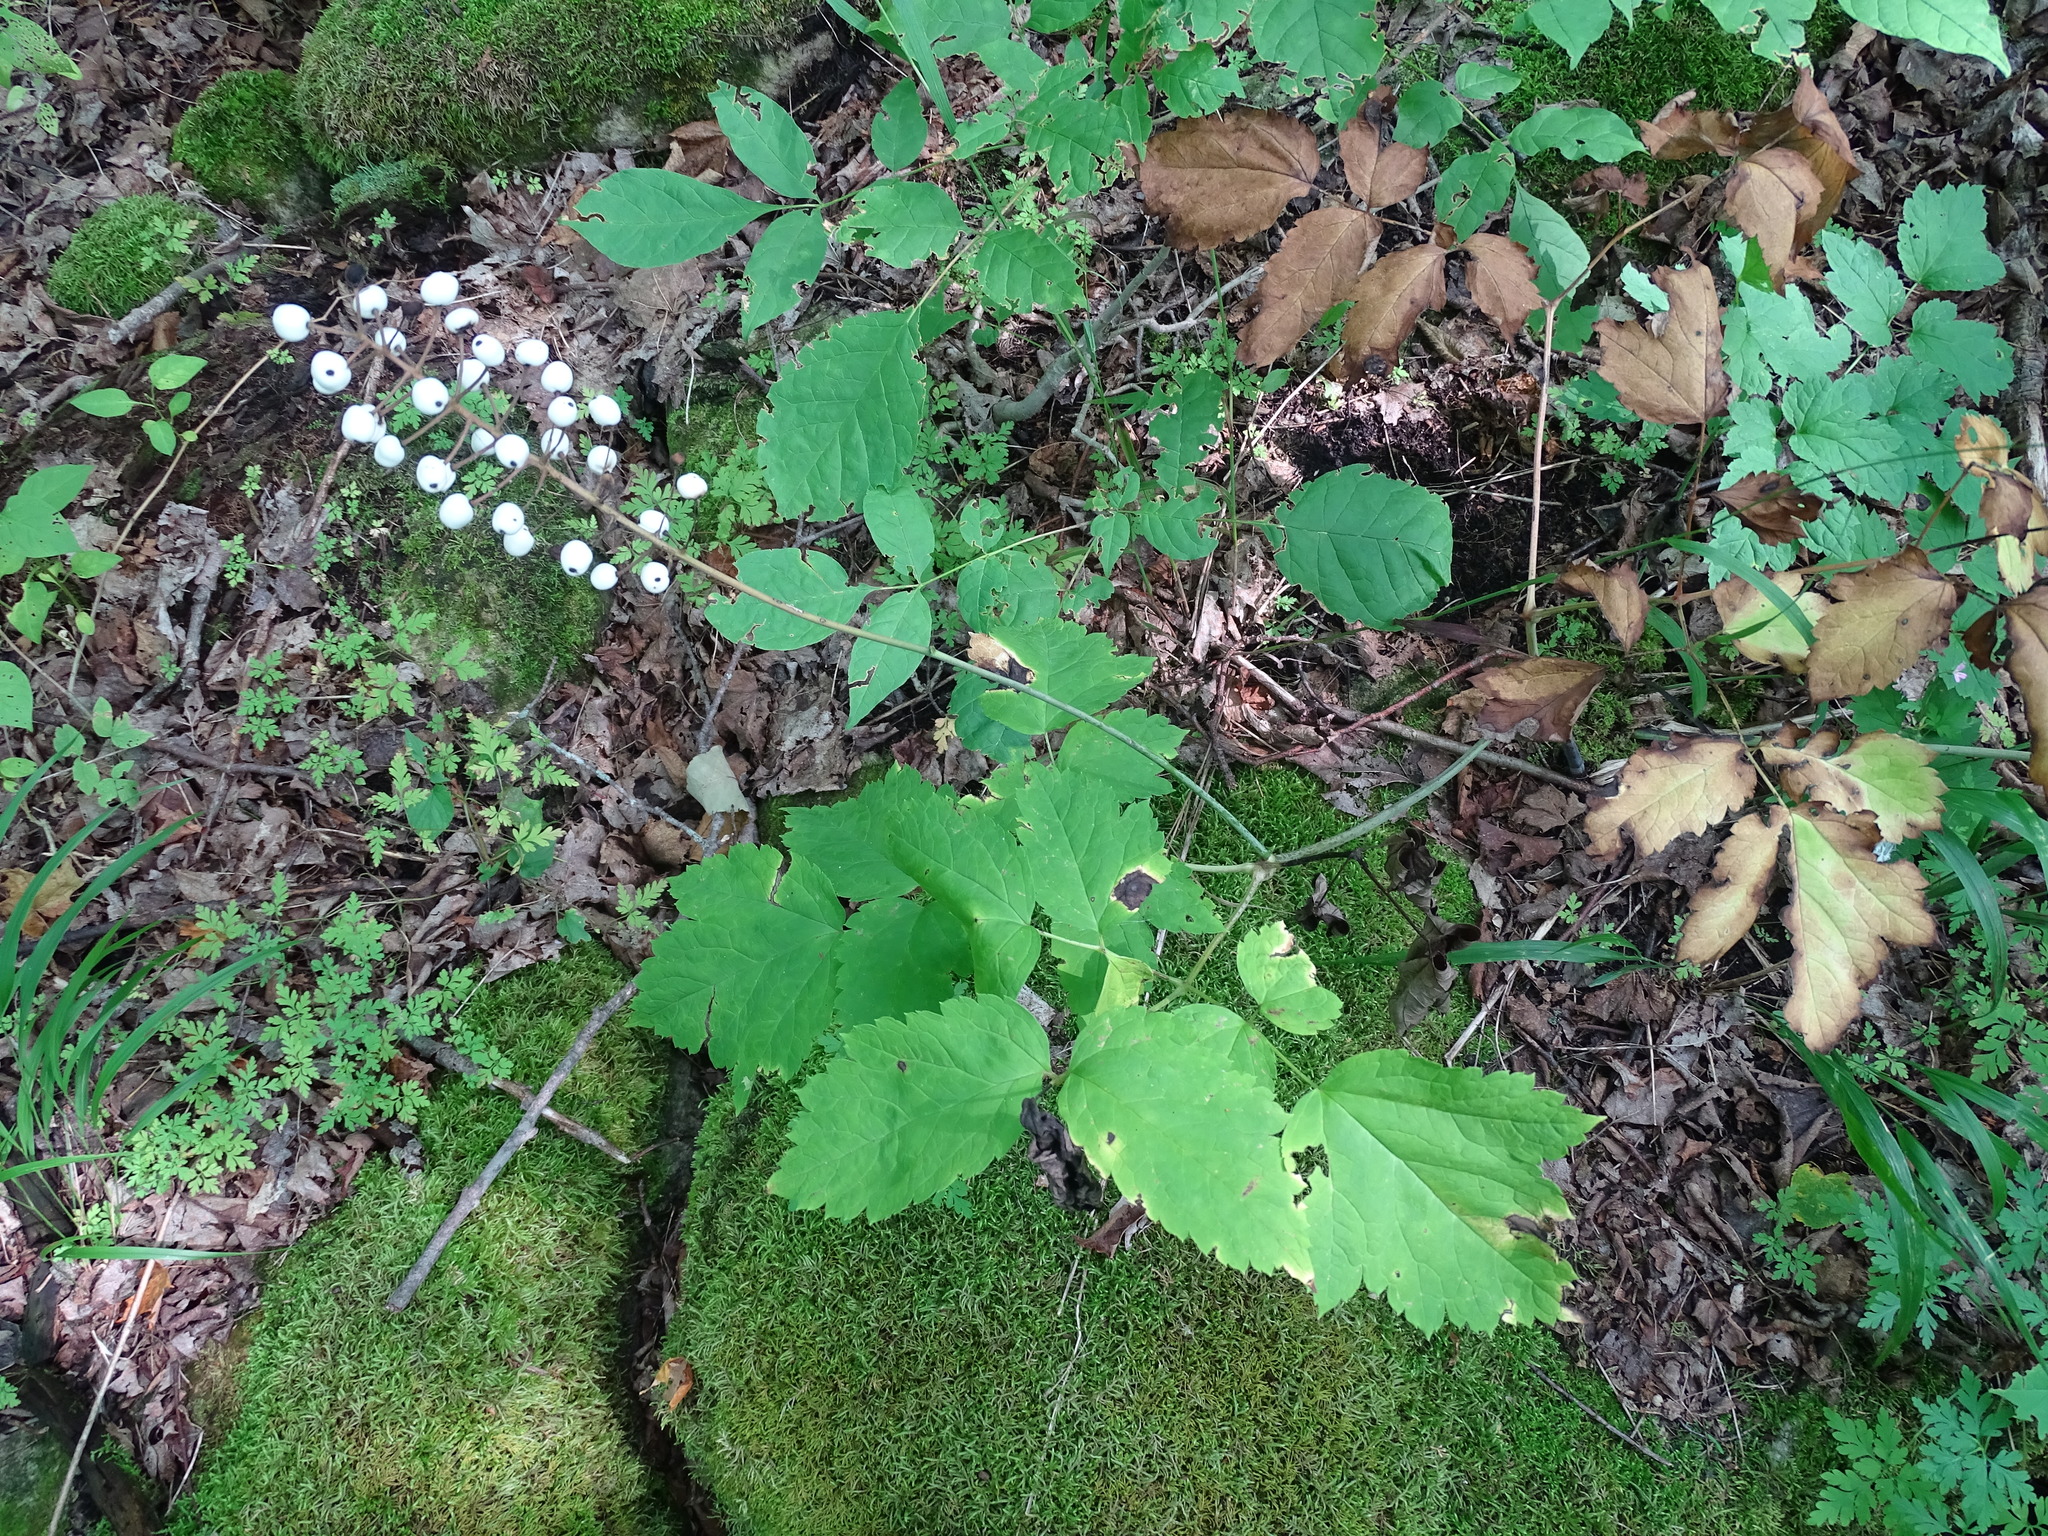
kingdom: Plantae
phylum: Tracheophyta
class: Magnoliopsida
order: Ranunculales
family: Ranunculaceae
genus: Actaea
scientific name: Actaea rubra
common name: Red baneberry
